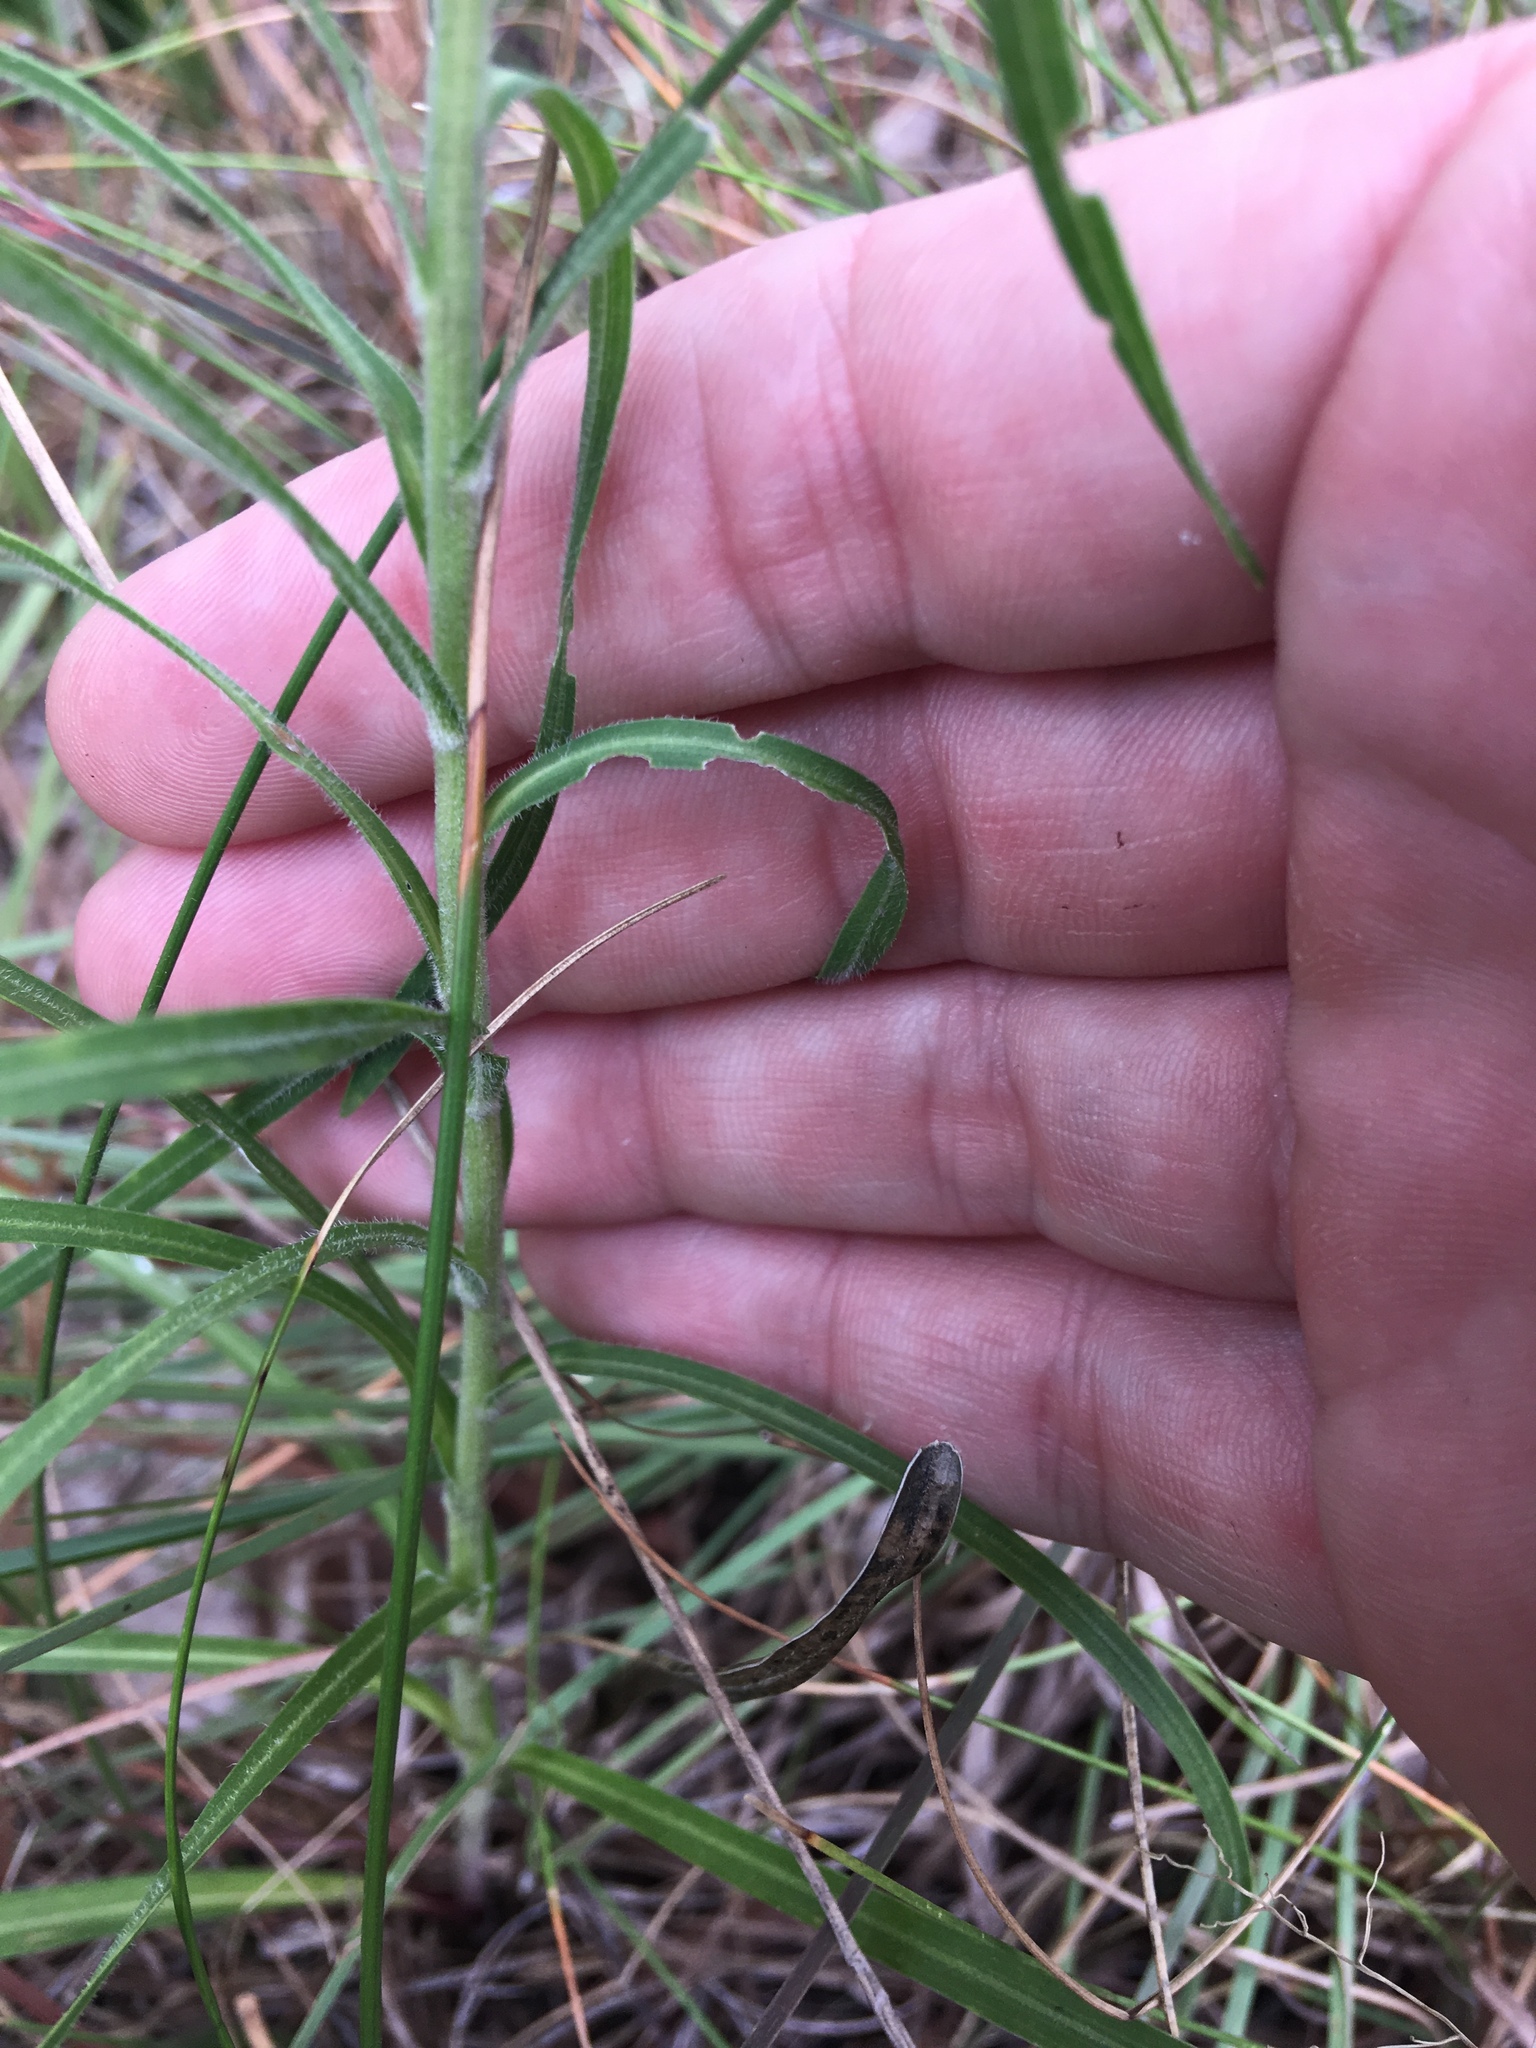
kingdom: Plantae
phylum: Tracheophyta
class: Magnoliopsida
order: Asterales
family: Asteraceae
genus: Liatris
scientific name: Liatris squarrosa
